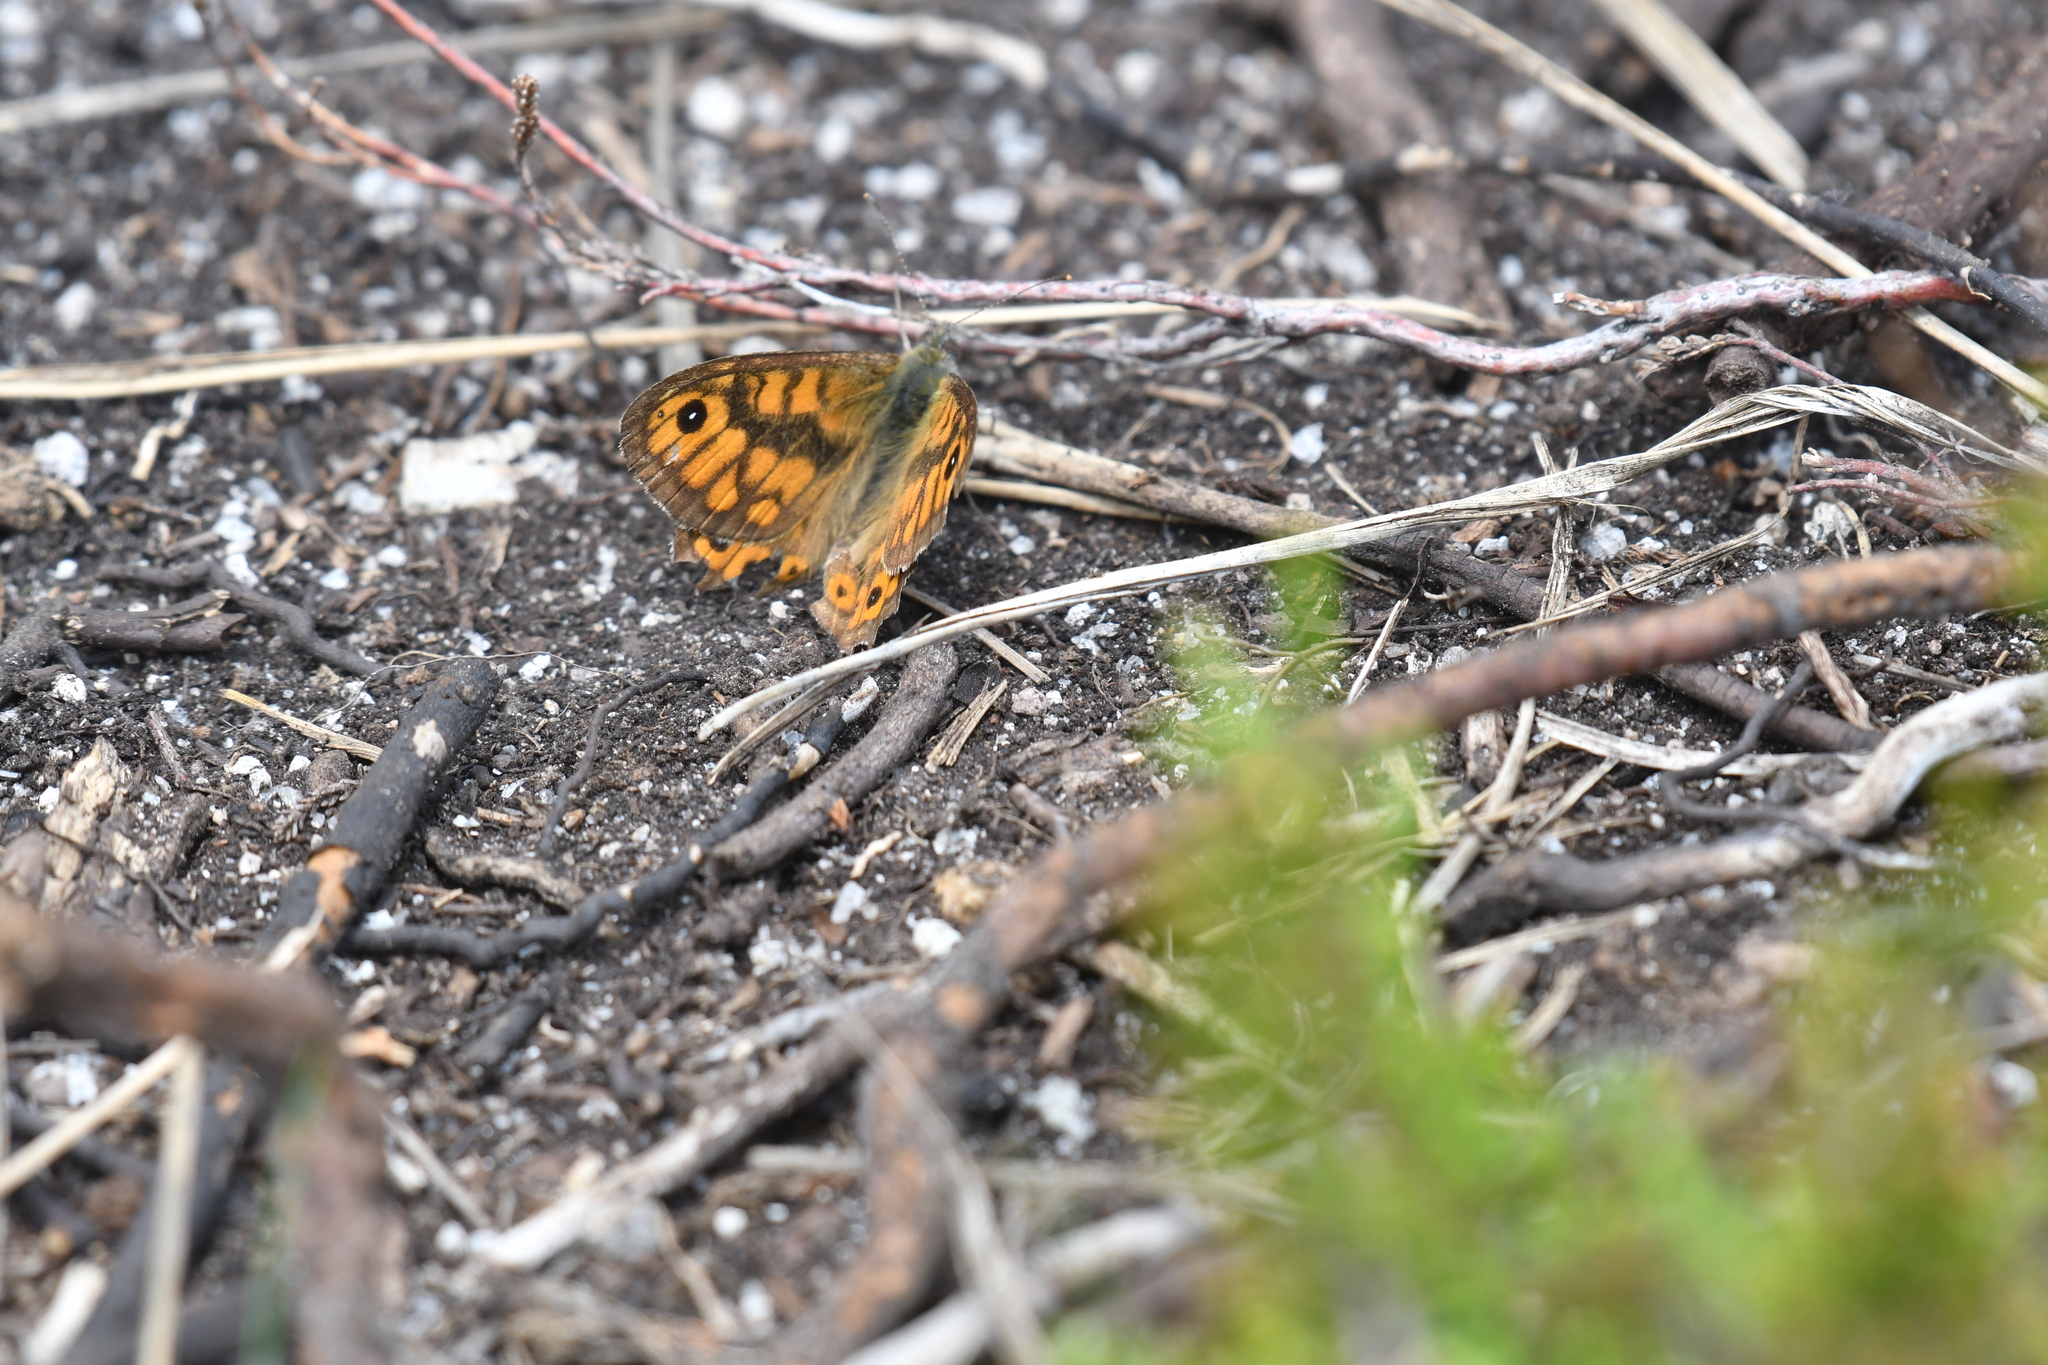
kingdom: Animalia
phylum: Arthropoda
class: Insecta
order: Lepidoptera
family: Nymphalidae
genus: Pararge
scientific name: Pararge Lasiommata megera
